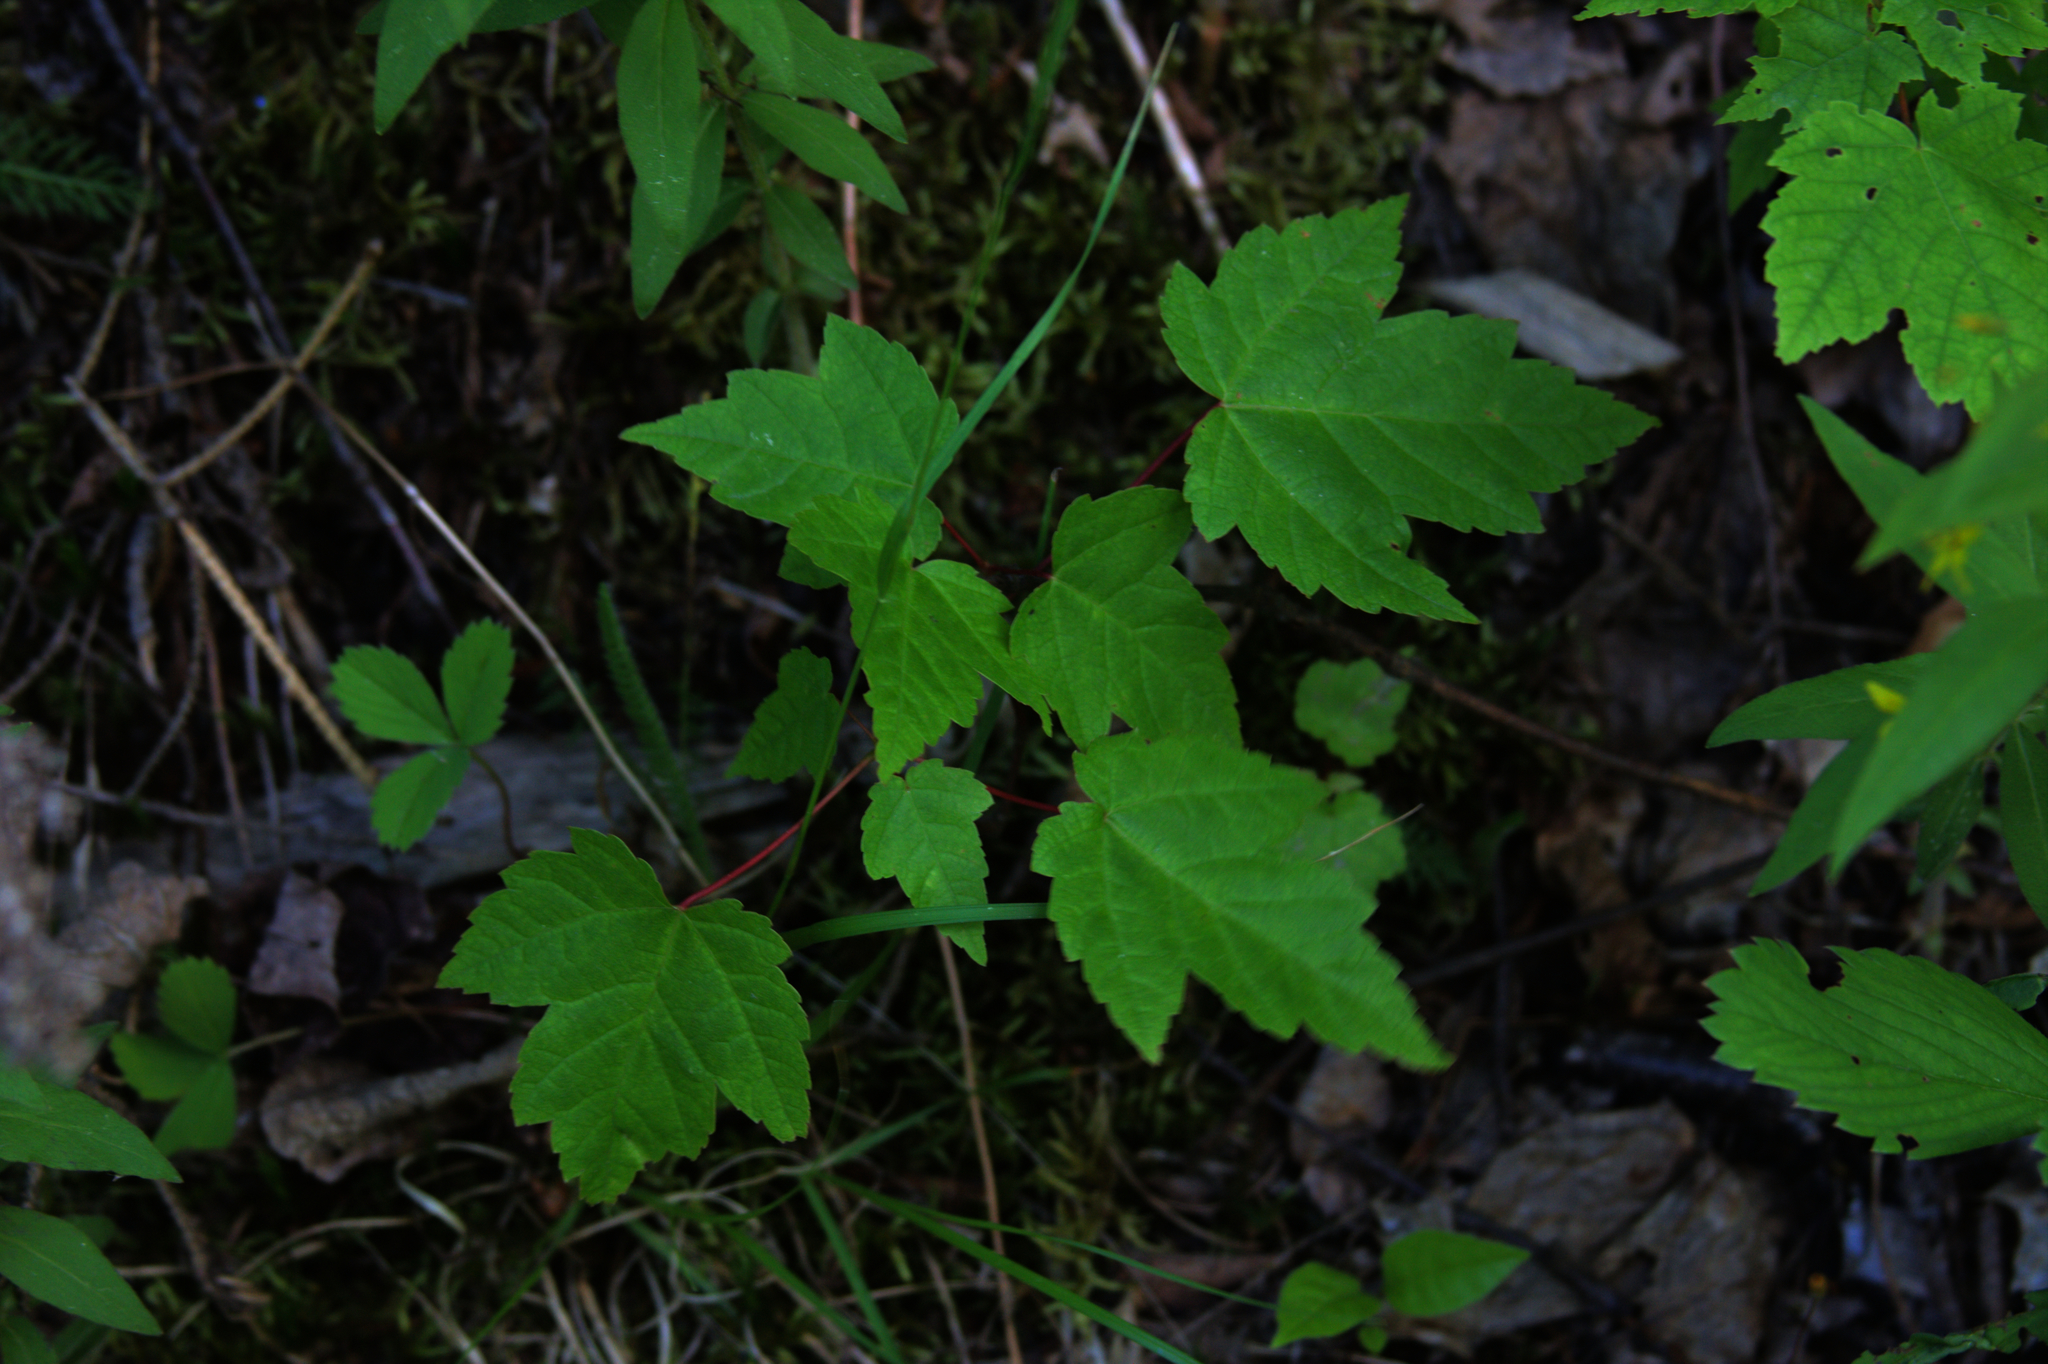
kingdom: Plantae
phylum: Tracheophyta
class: Magnoliopsida
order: Sapindales
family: Sapindaceae
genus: Acer
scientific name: Acer rubrum
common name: Red maple
